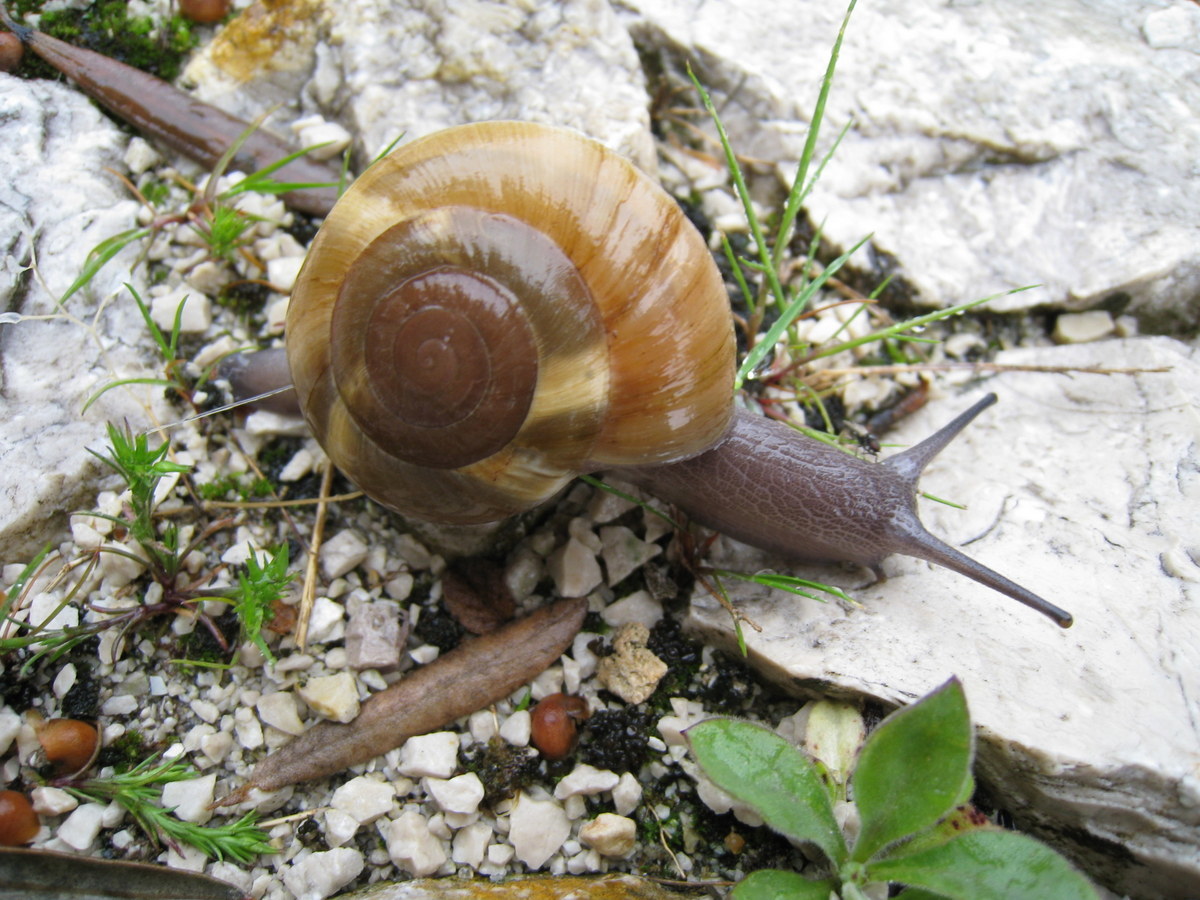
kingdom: Animalia
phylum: Mollusca
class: Gastropoda
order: Stylommatophora
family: Zonitidae
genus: Zonites
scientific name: Zonites algirus
